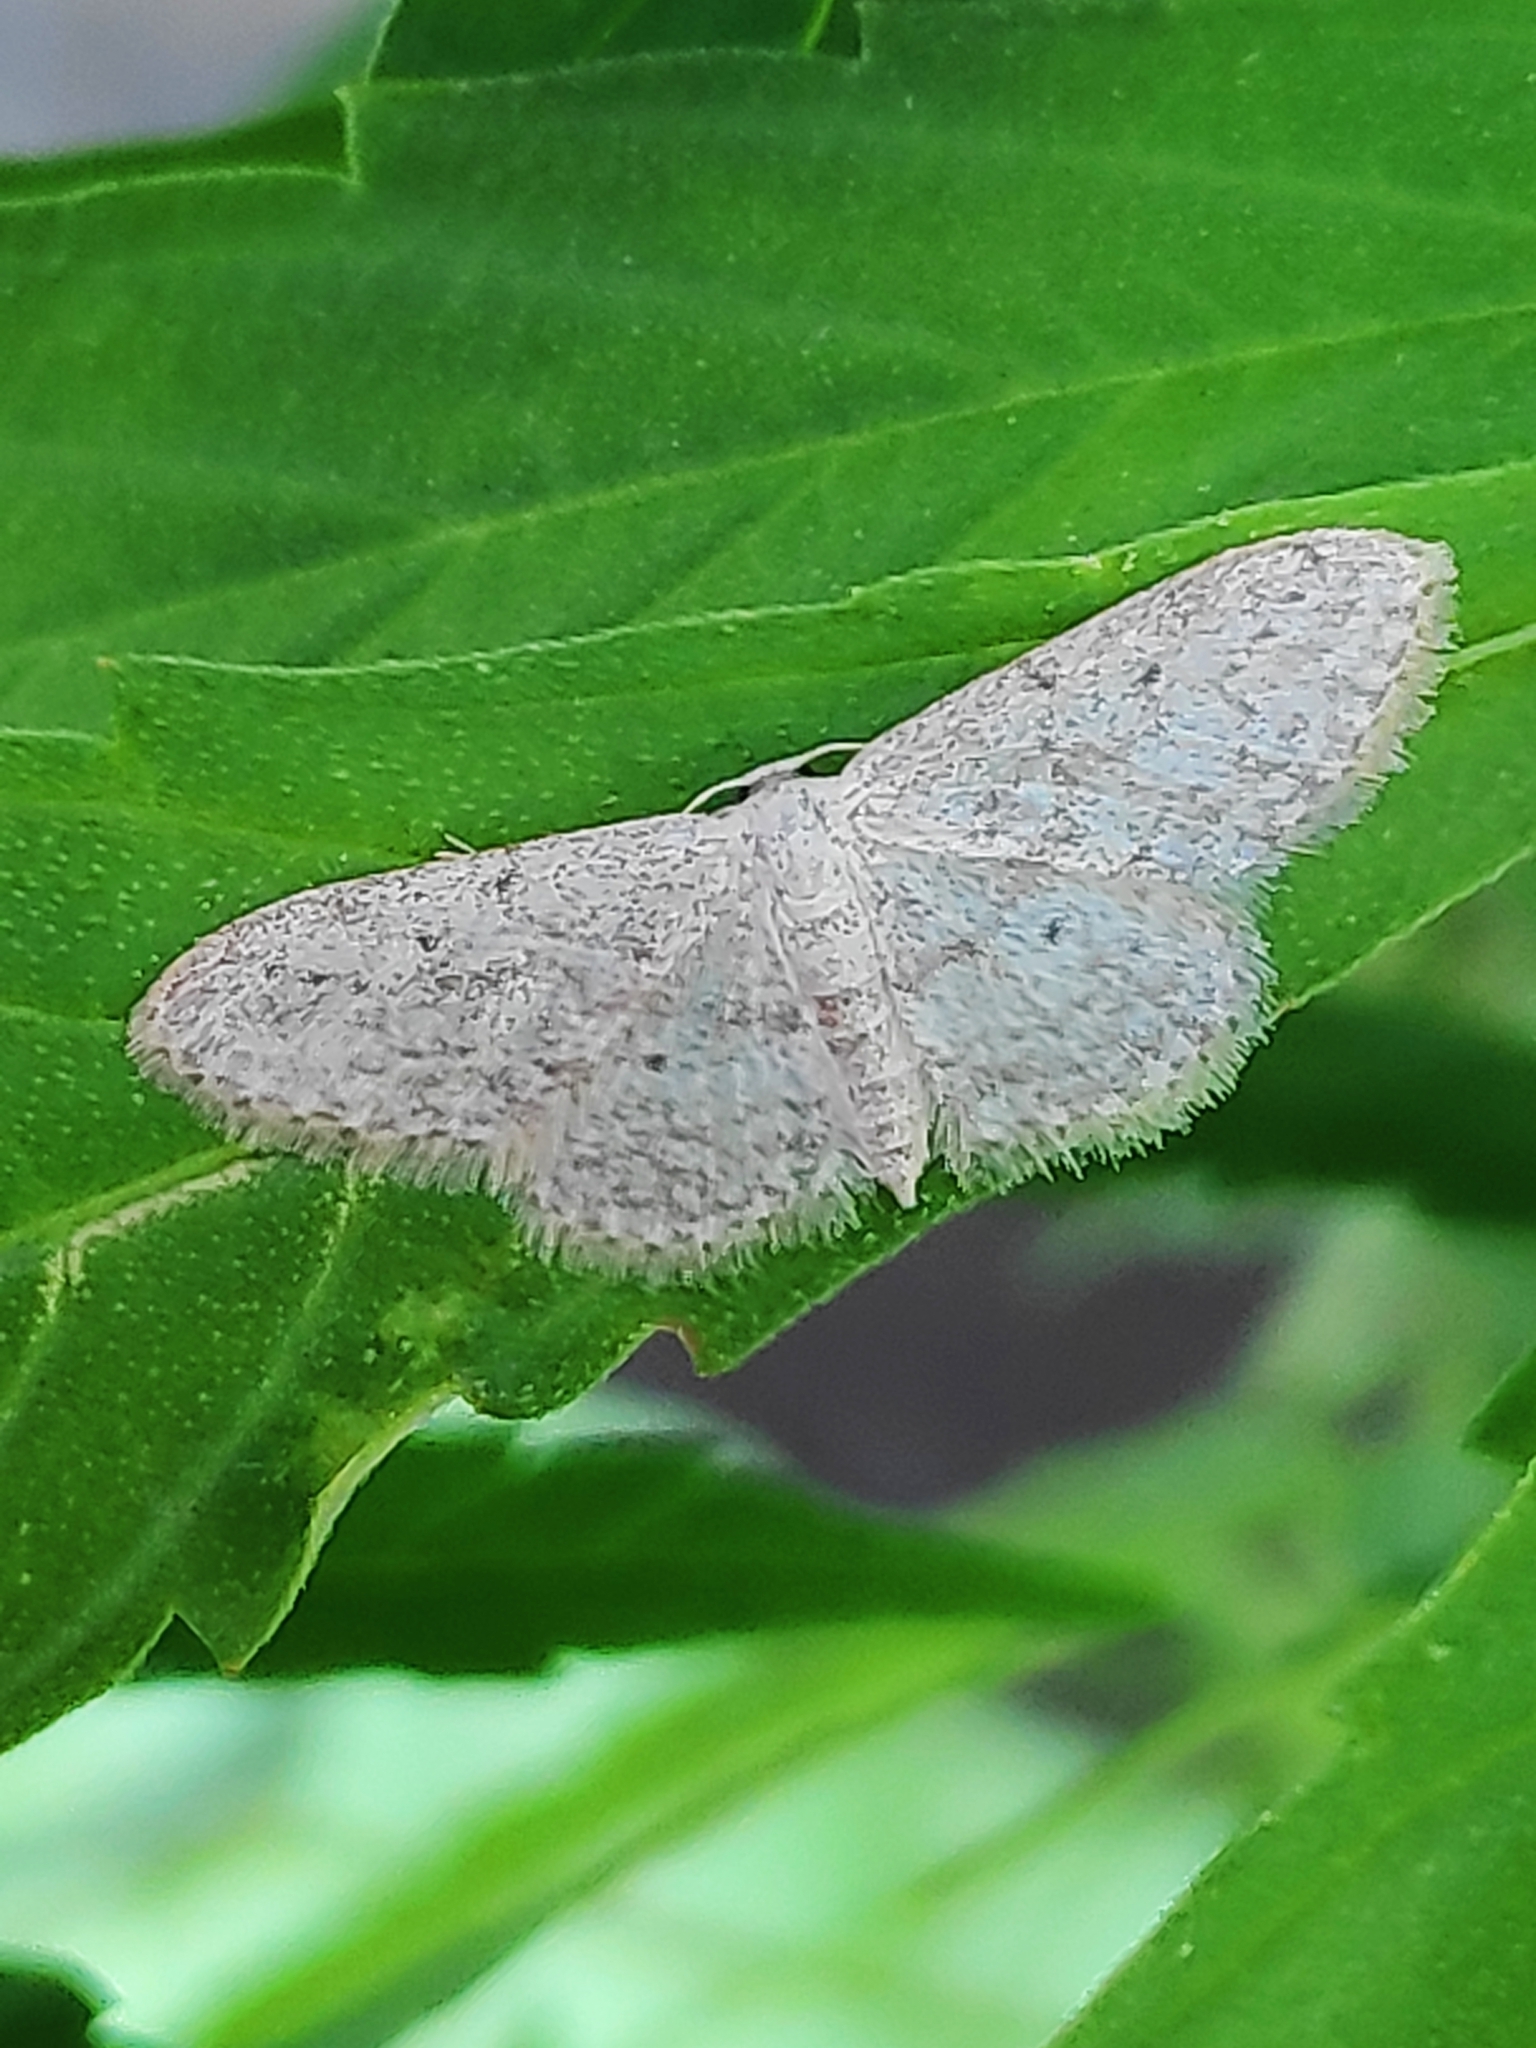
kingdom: Animalia
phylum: Arthropoda
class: Insecta
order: Lepidoptera
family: Geometridae
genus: Idaea
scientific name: Idaea seriata
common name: Small dusty wave
